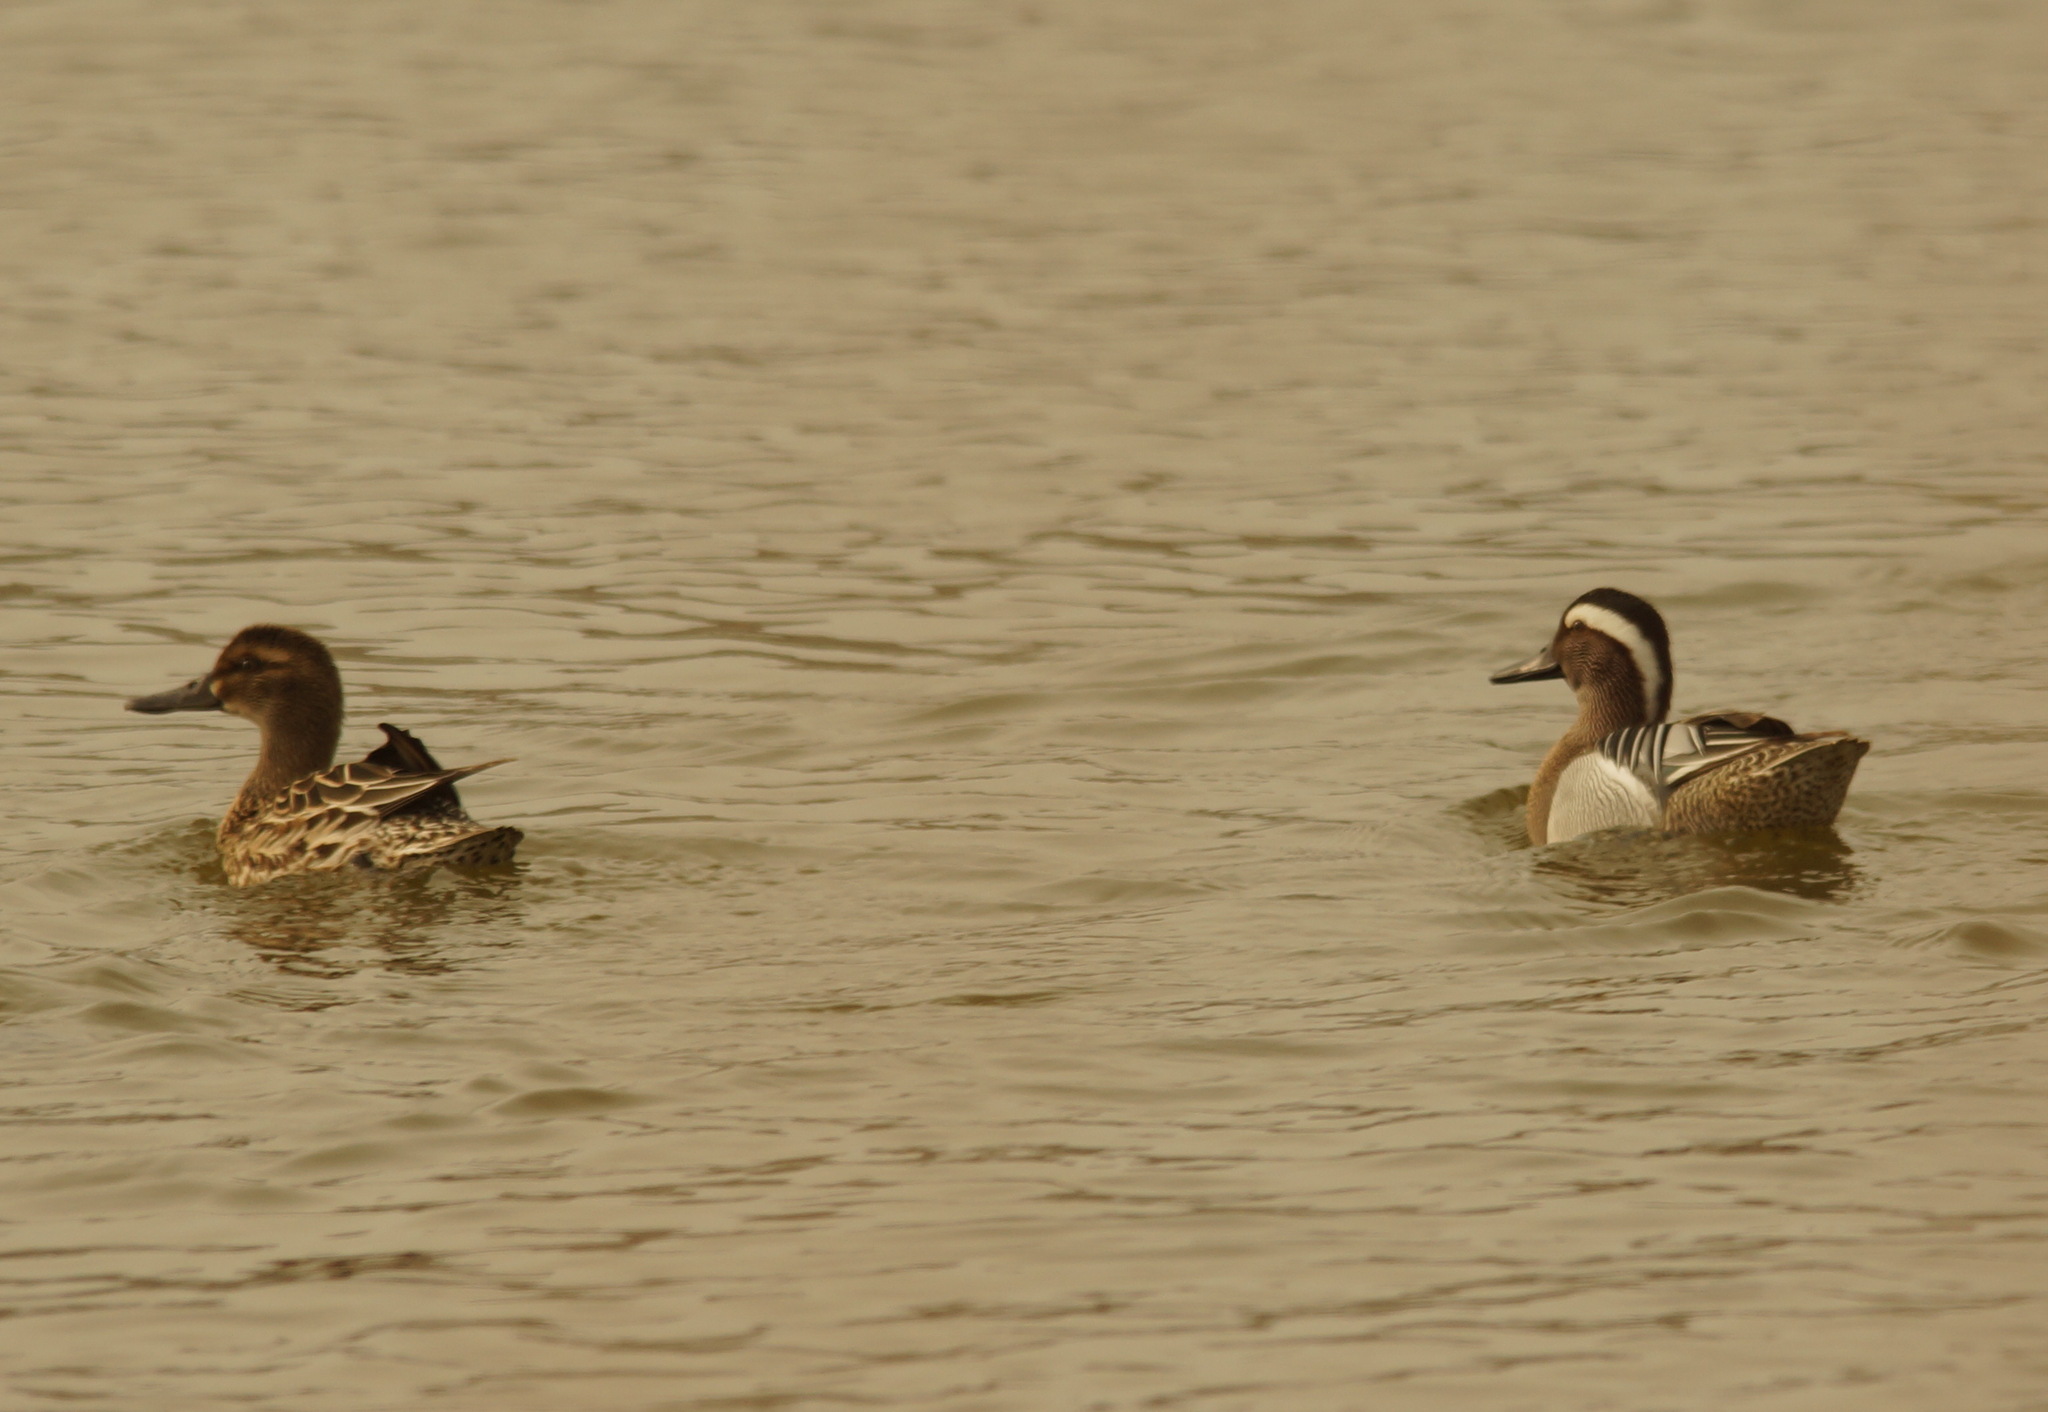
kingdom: Animalia
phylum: Chordata
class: Aves
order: Anseriformes
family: Anatidae
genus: Spatula
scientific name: Spatula querquedula
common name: Garganey
